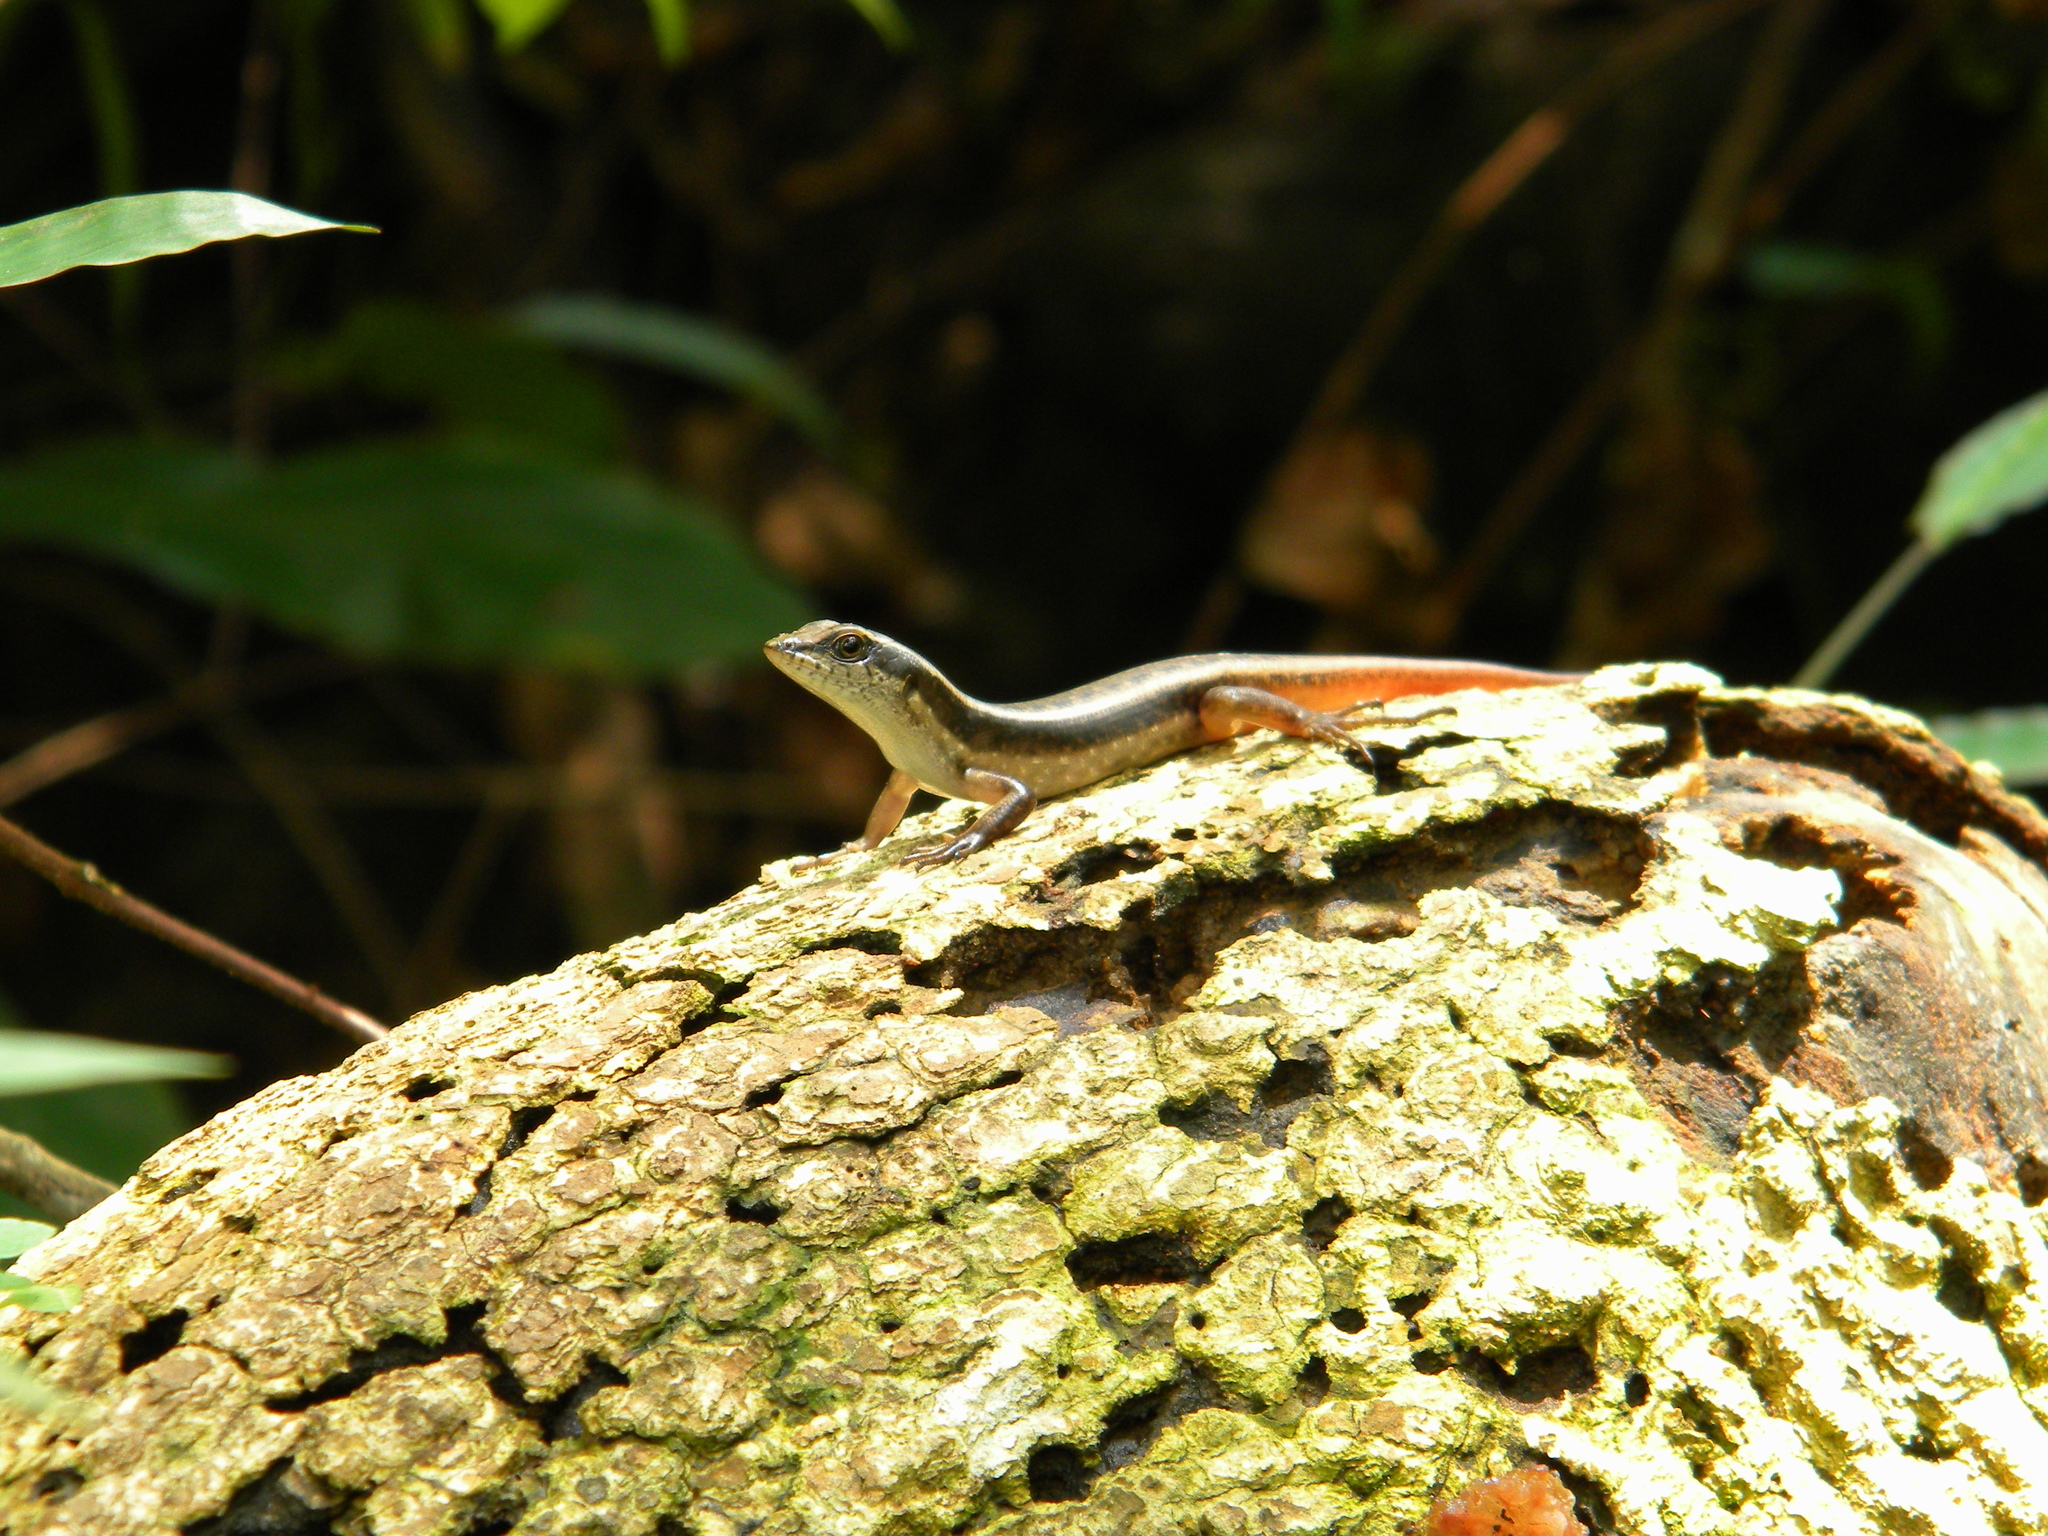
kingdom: Animalia
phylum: Chordata
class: Squamata
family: Scincidae
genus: Sphenomorphus
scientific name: Sphenomorphus dussumieri
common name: Dussumier's forest skink
